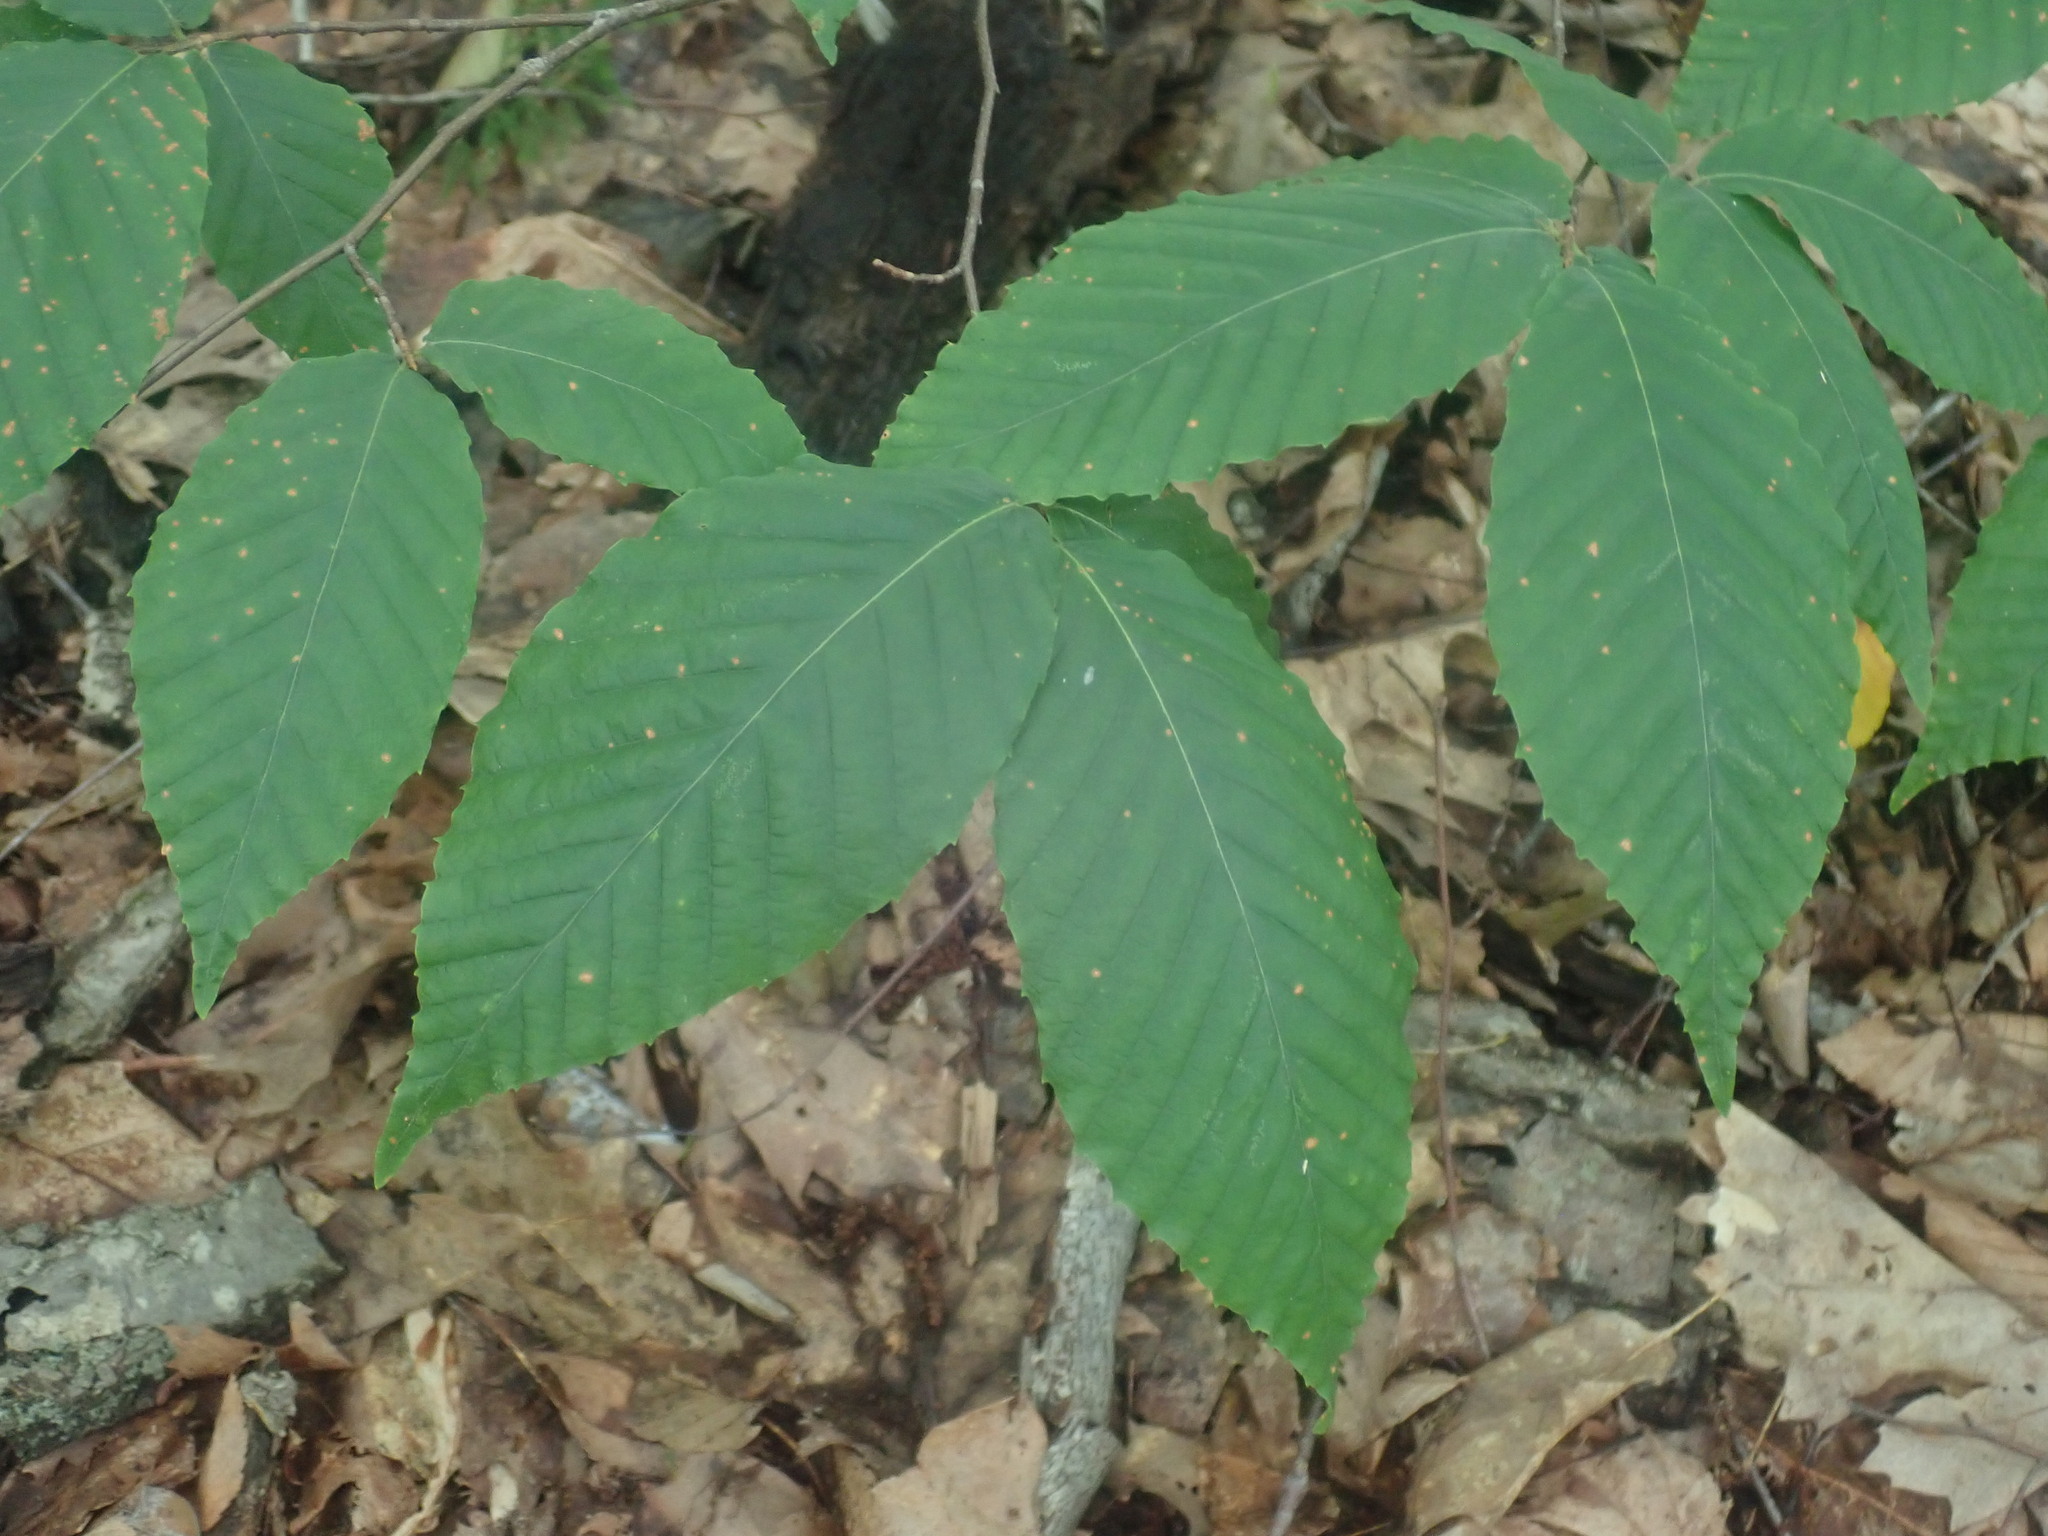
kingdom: Plantae
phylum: Tracheophyta
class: Magnoliopsida
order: Fagales
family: Fagaceae
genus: Fagus
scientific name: Fagus grandifolia
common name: American beech
